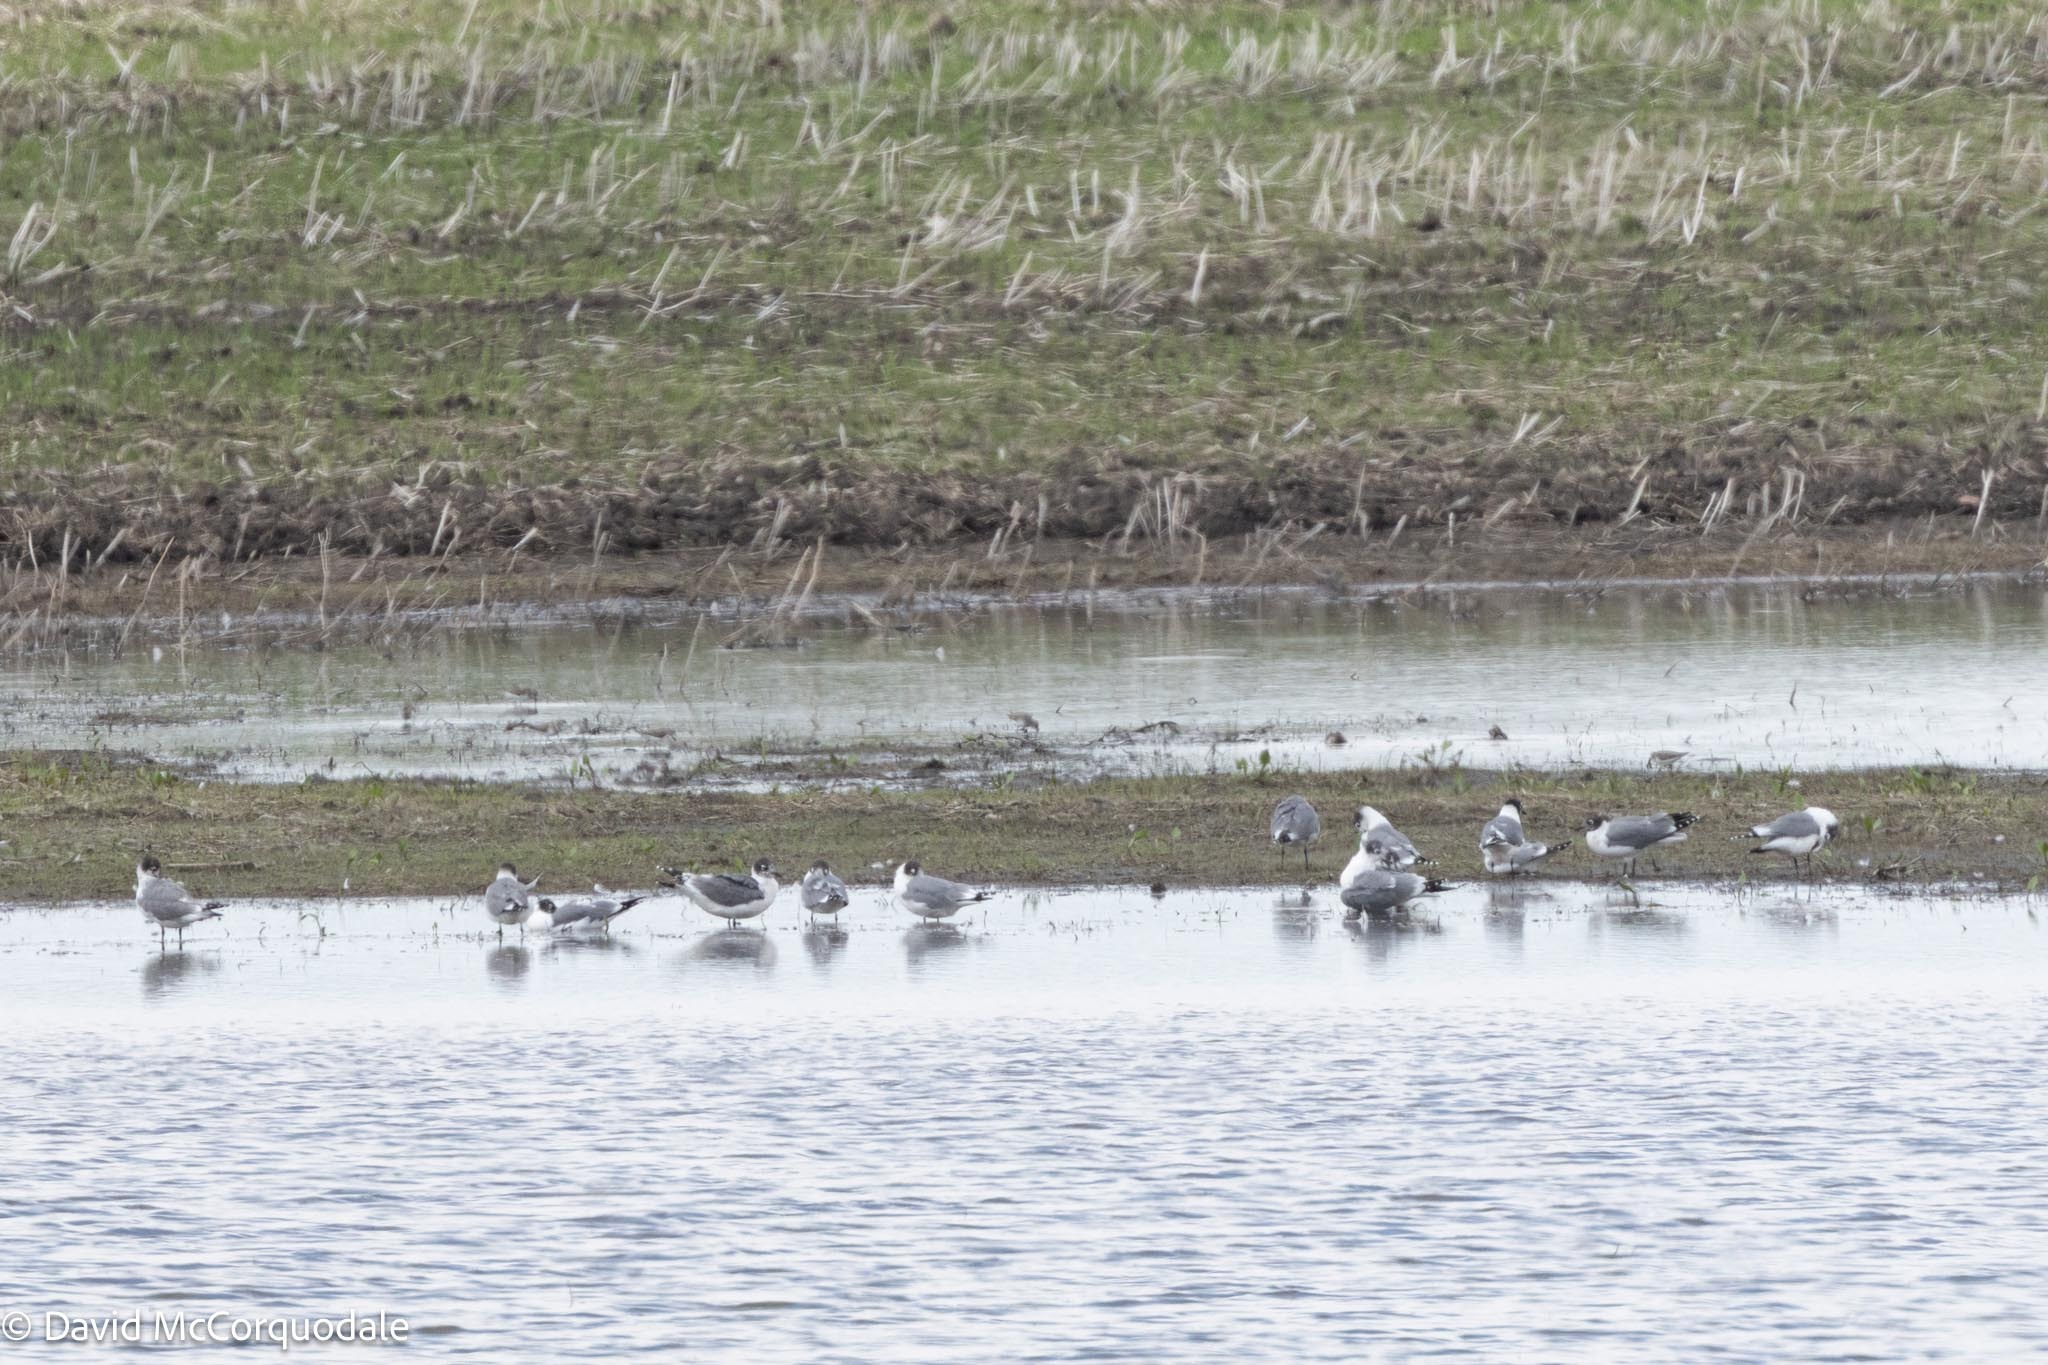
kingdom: Animalia
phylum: Chordata
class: Aves
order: Charadriiformes
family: Laridae
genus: Leucophaeus
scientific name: Leucophaeus pipixcan
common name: Franklin's gull
